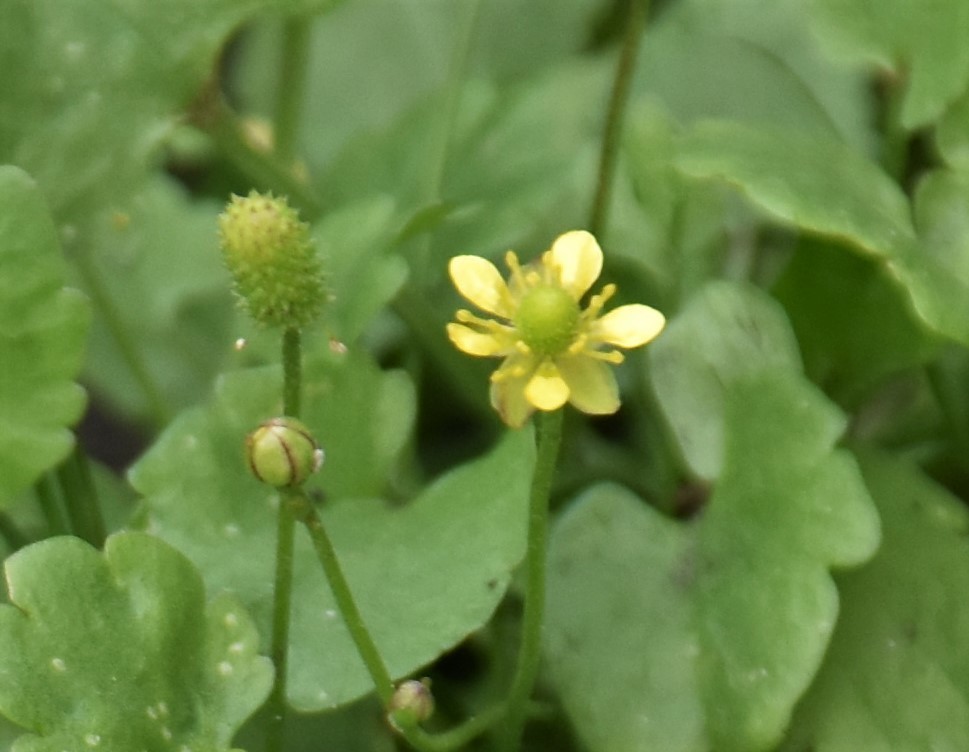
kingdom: Plantae
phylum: Tracheophyta
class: Magnoliopsida
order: Ranunculales
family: Ranunculaceae
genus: Halerpestes
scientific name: Halerpestes cymbalaria
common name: Seaside crowfoot
